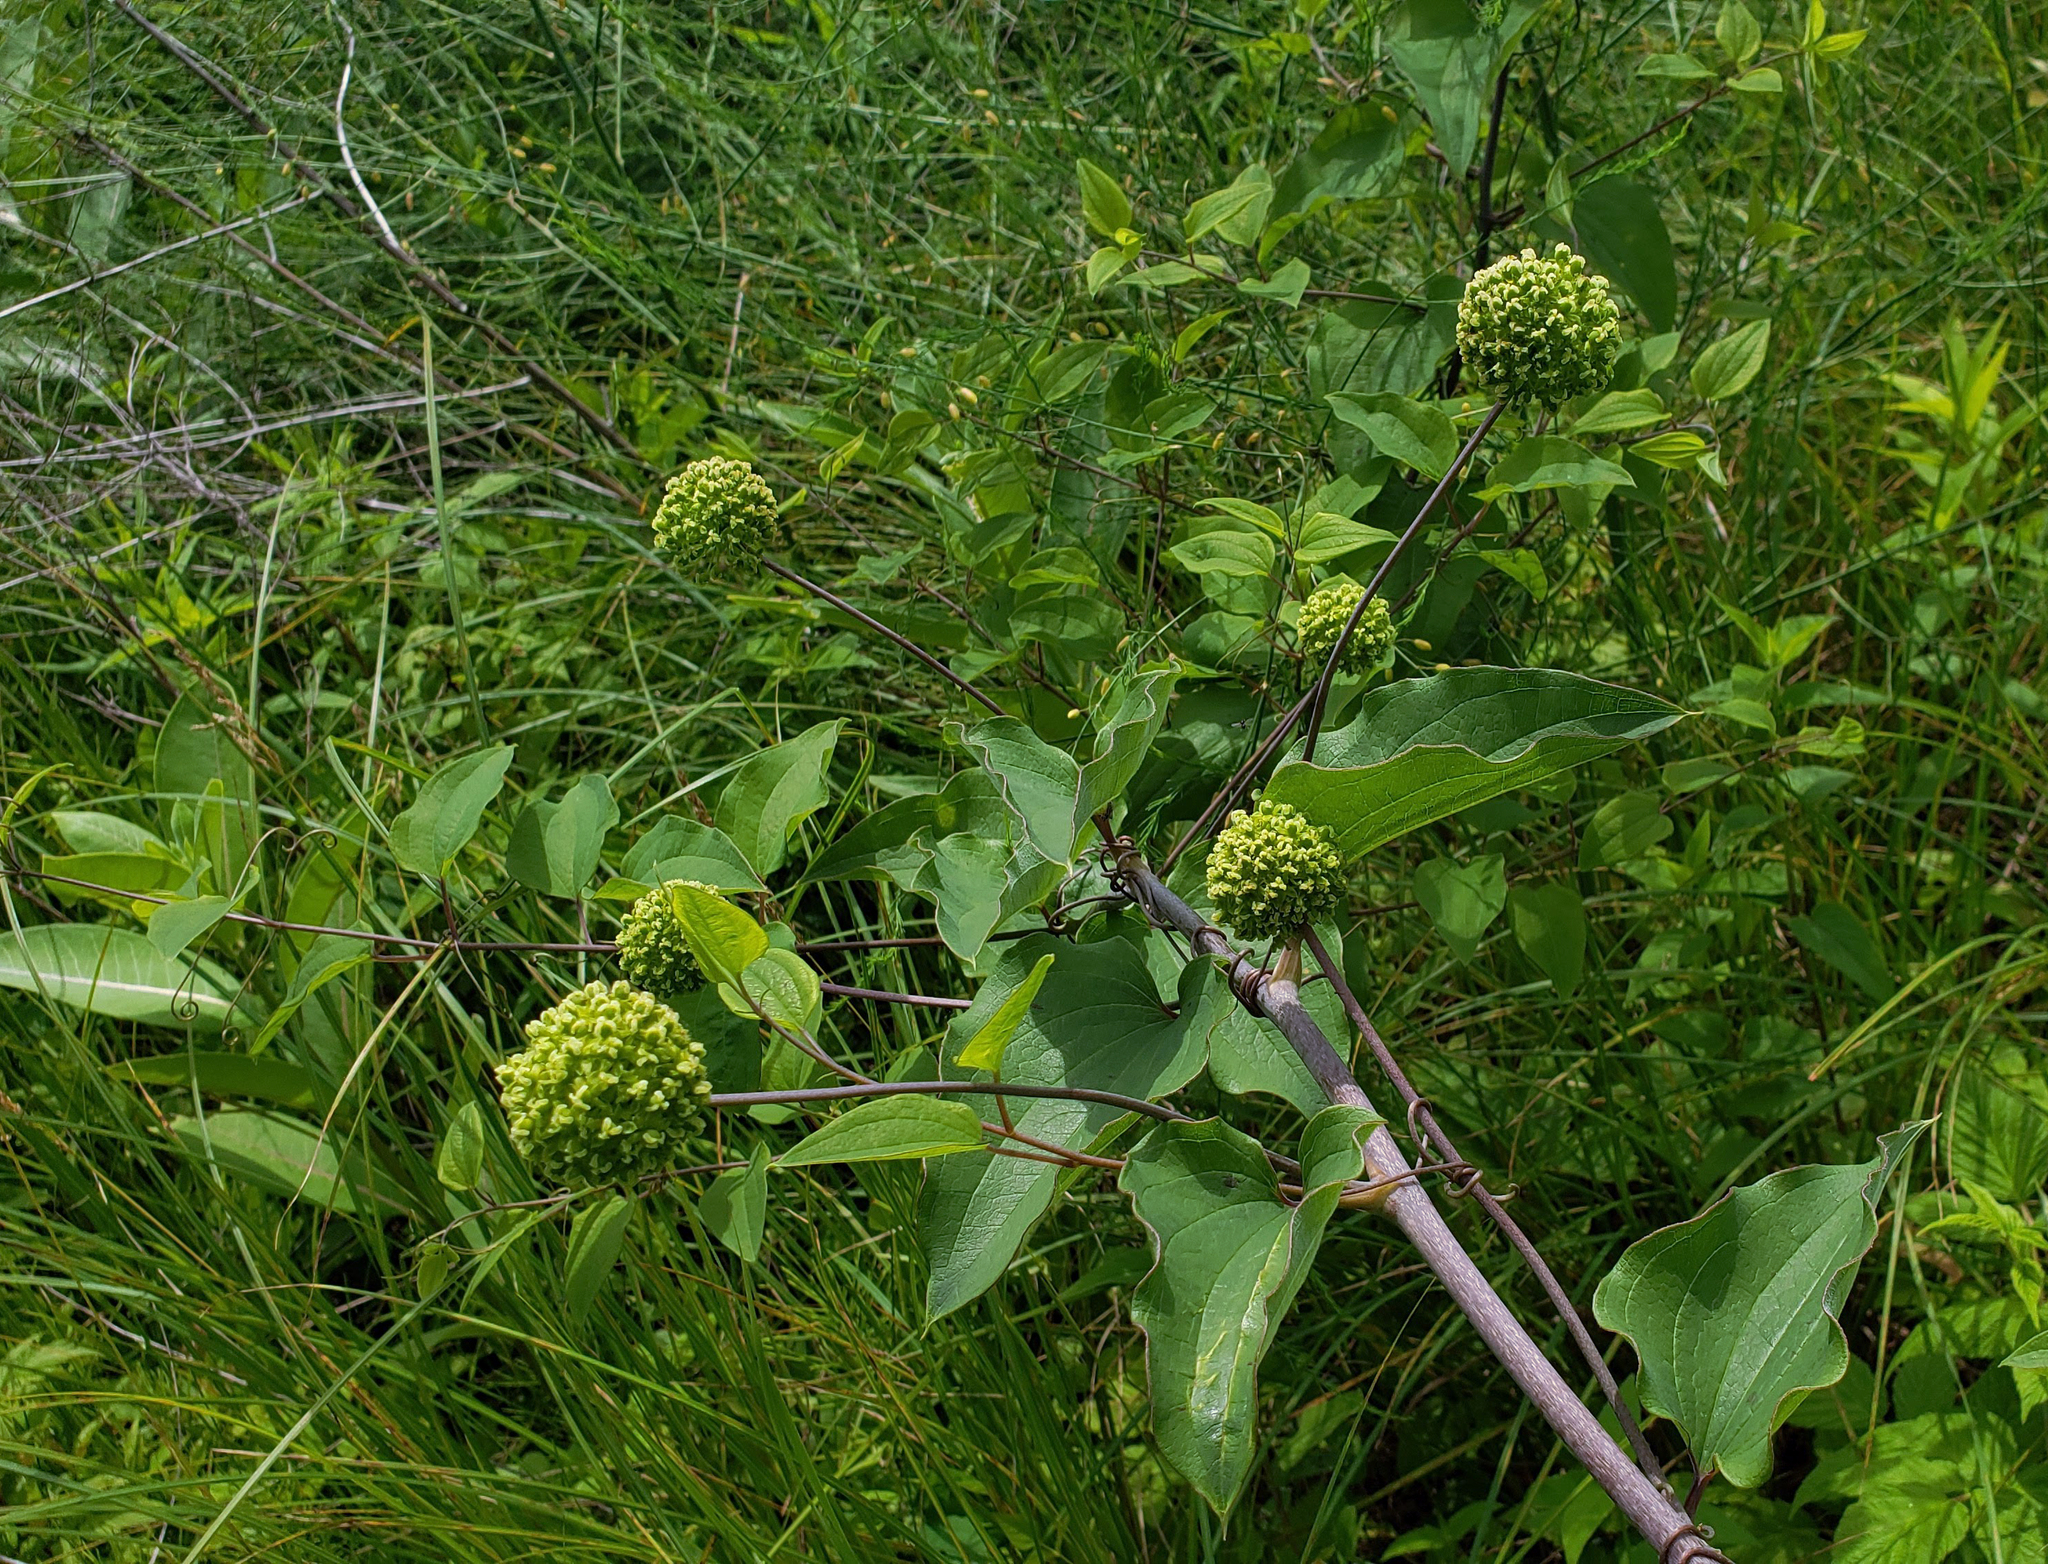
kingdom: Plantae
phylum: Tracheophyta
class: Liliopsida
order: Liliales
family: Smilacaceae
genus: Smilax
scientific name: Smilax lasioneura
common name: Blue ridge carrionflower
